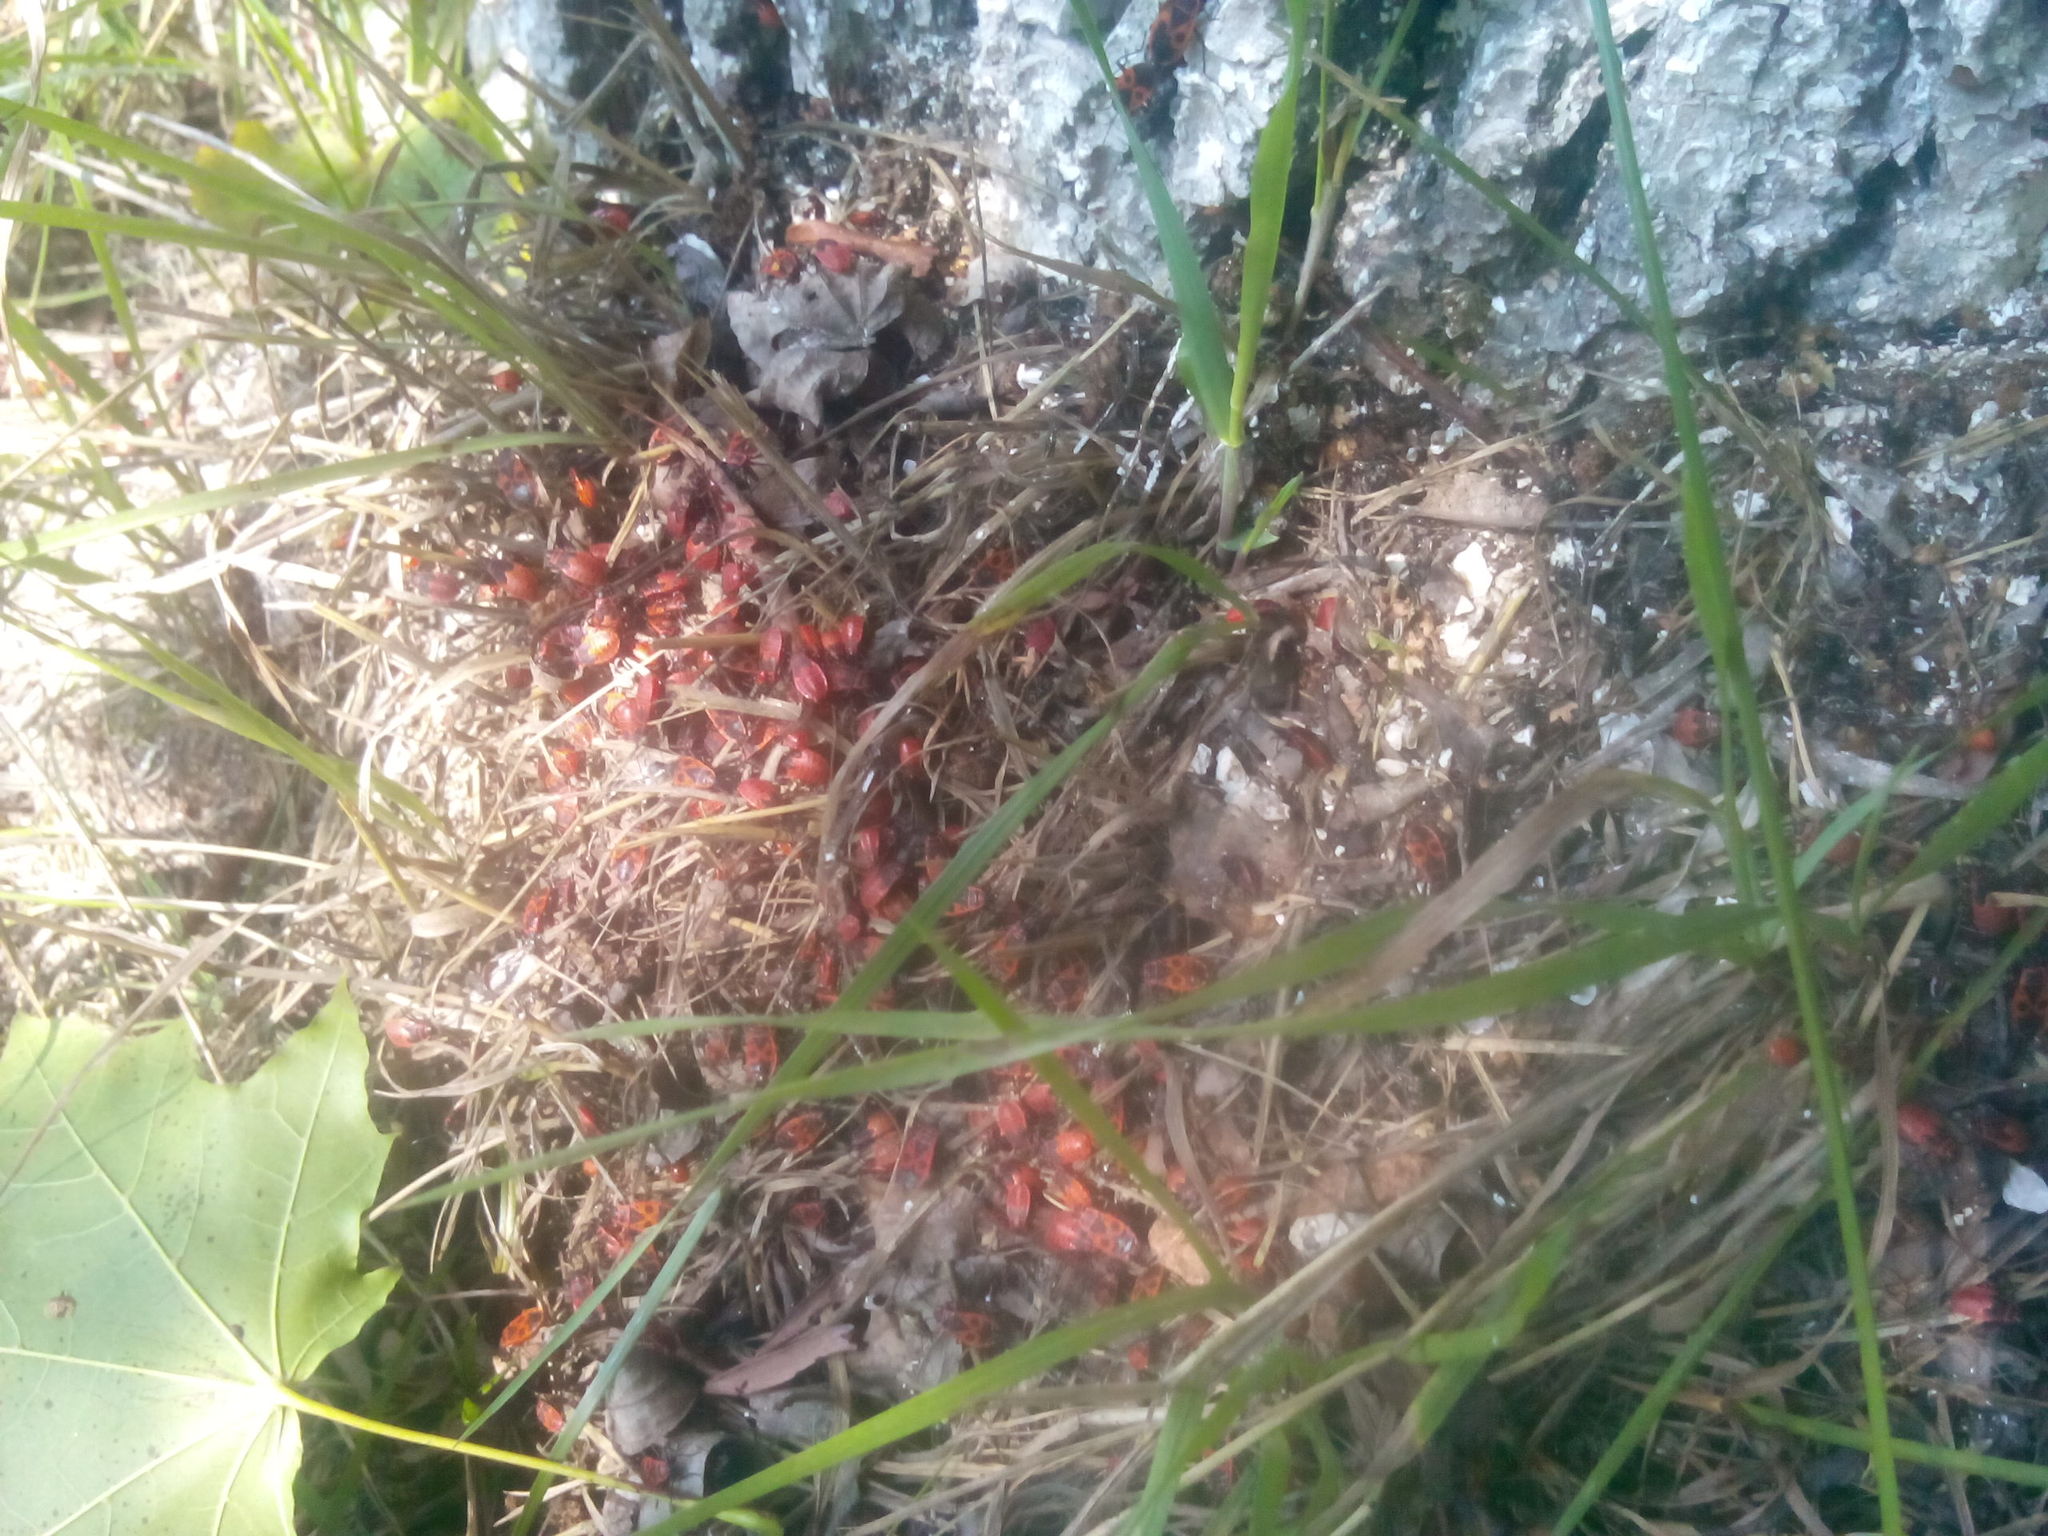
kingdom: Animalia
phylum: Arthropoda
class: Insecta
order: Hemiptera
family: Pyrrhocoridae
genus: Pyrrhocoris
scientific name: Pyrrhocoris apterus
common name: Firebug
